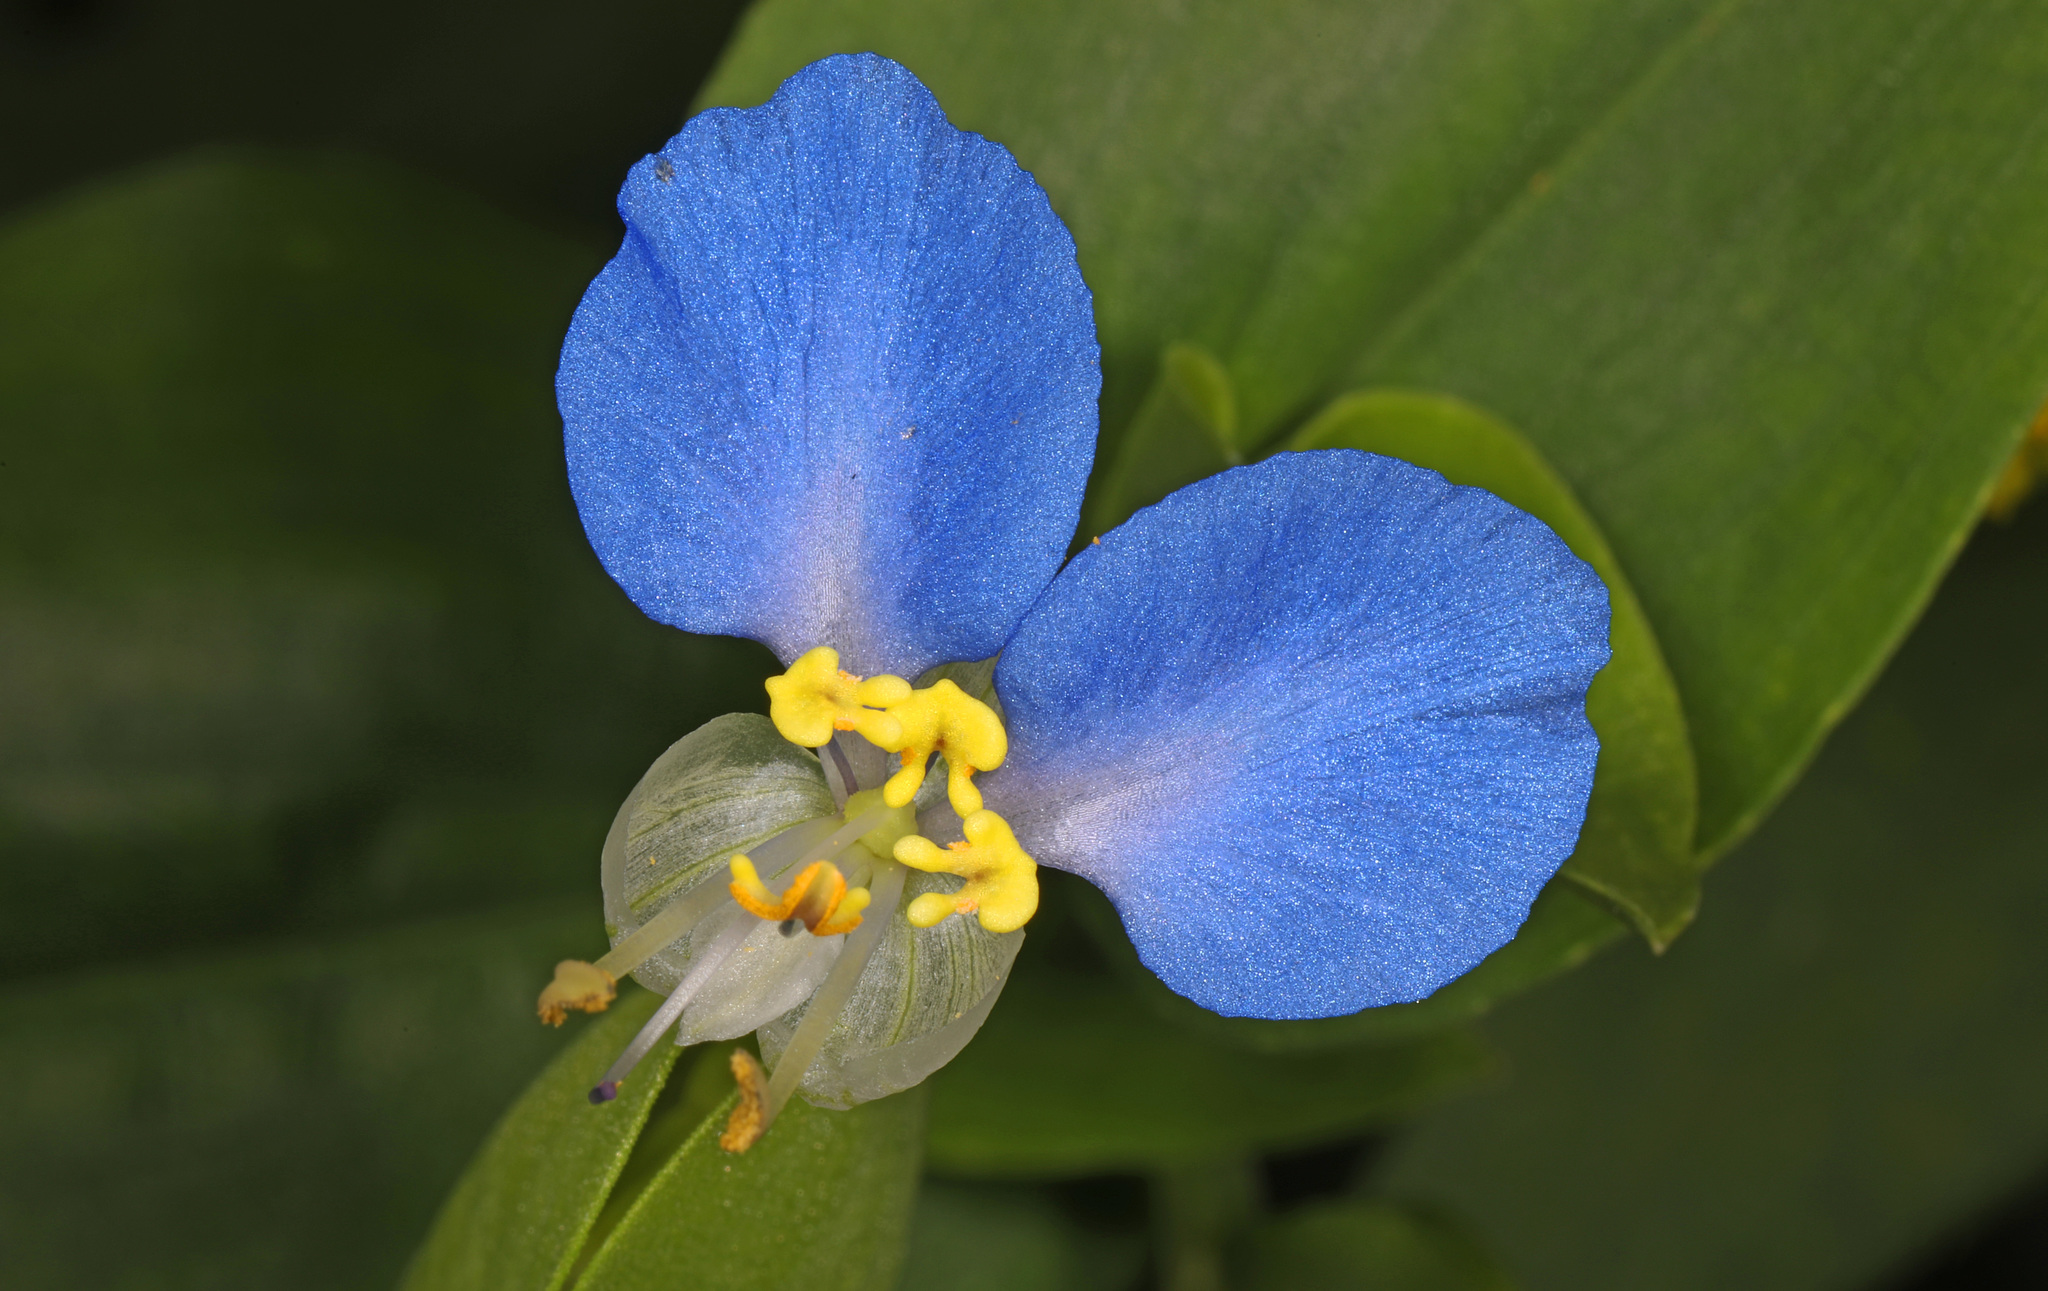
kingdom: Plantae
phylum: Tracheophyta
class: Liliopsida
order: Commelinales
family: Commelinaceae
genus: Commelina
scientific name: Commelina communis
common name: Asiatic dayflower
